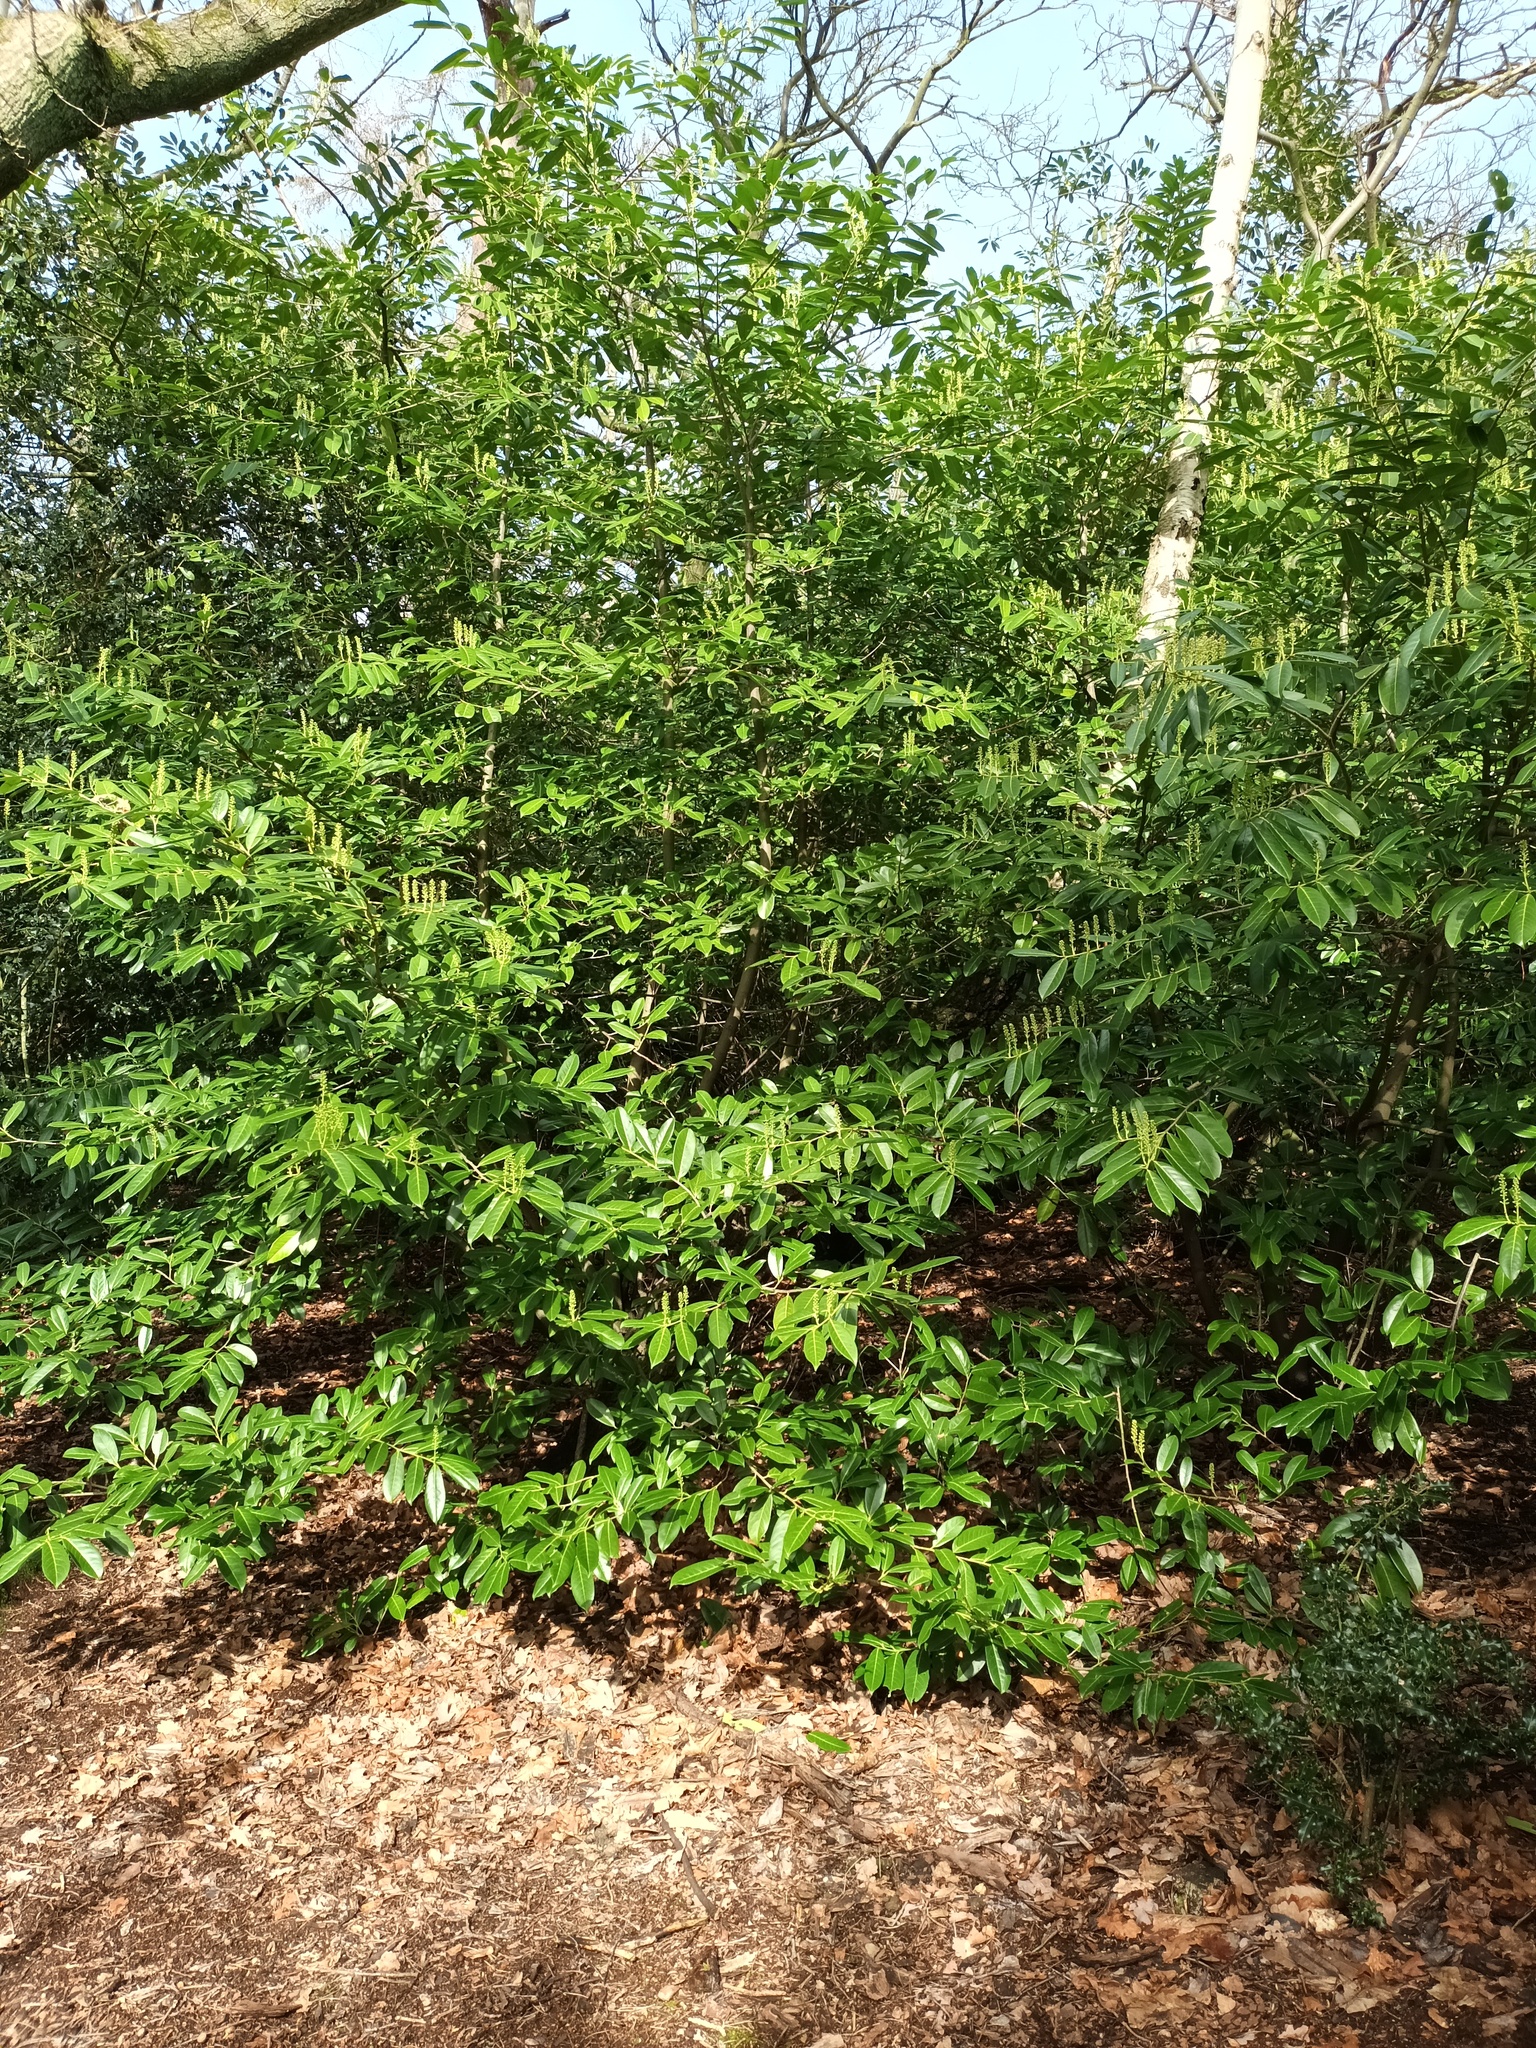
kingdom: Plantae
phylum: Tracheophyta
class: Magnoliopsida
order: Rosales
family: Rosaceae
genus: Prunus
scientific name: Prunus laurocerasus
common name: Cherry laurel
